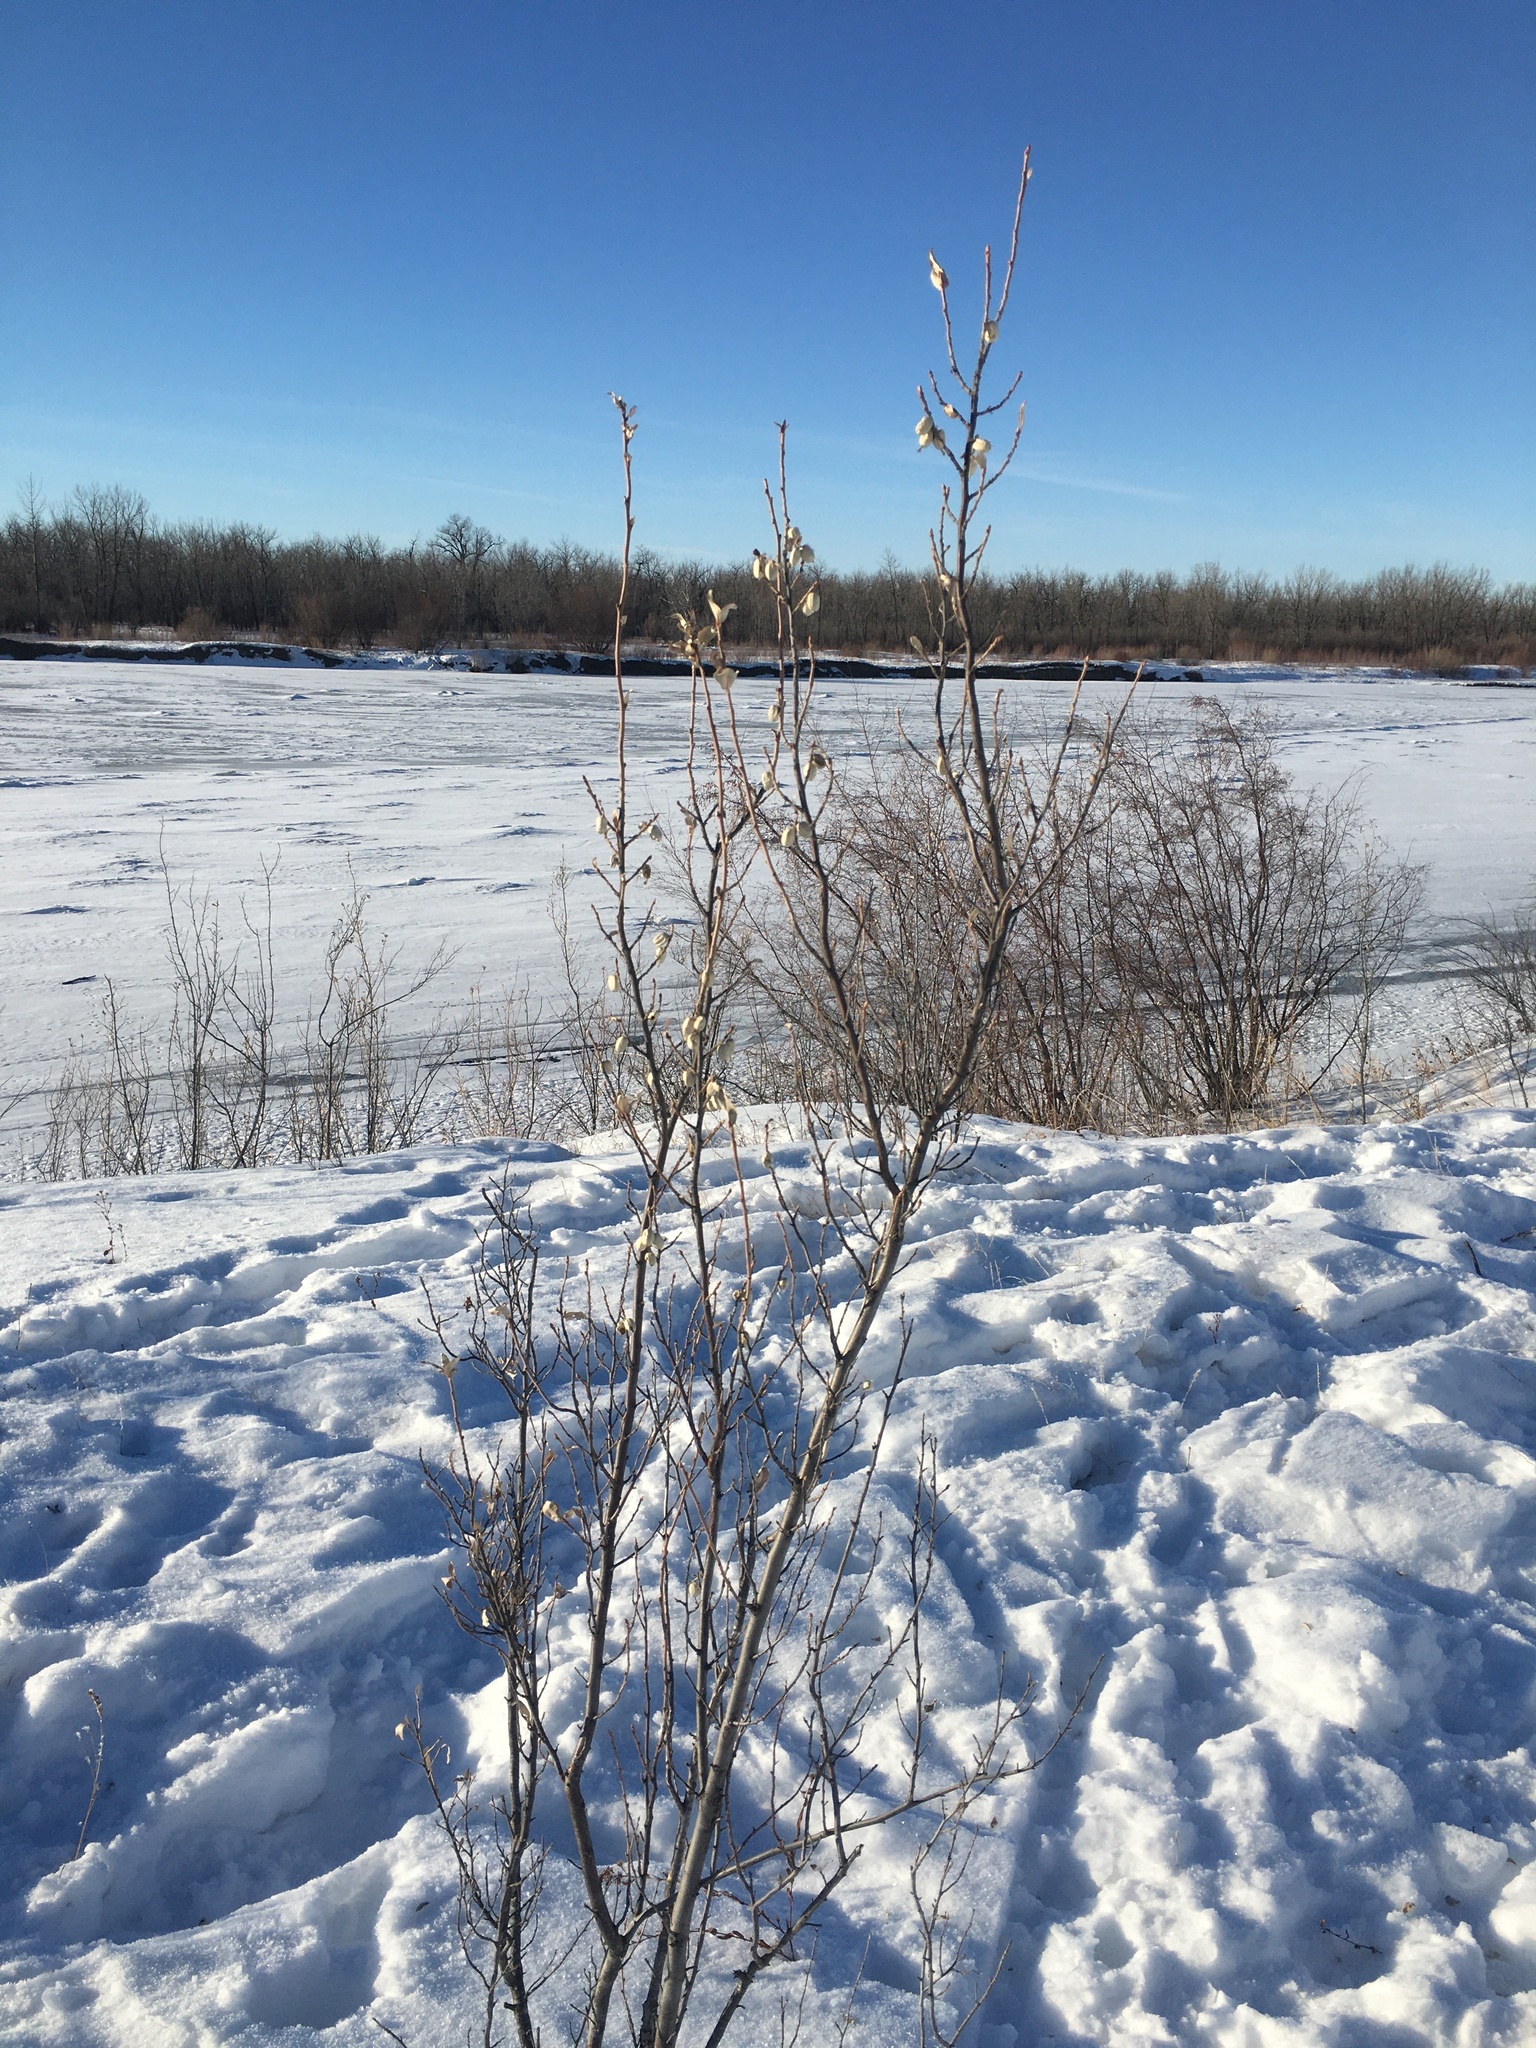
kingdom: Plantae
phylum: Tracheophyta
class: Magnoliopsida
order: Rosales
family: Elaeagnaceae
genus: Elaeagnus
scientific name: Elaeagnus commutata
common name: Silverberry
